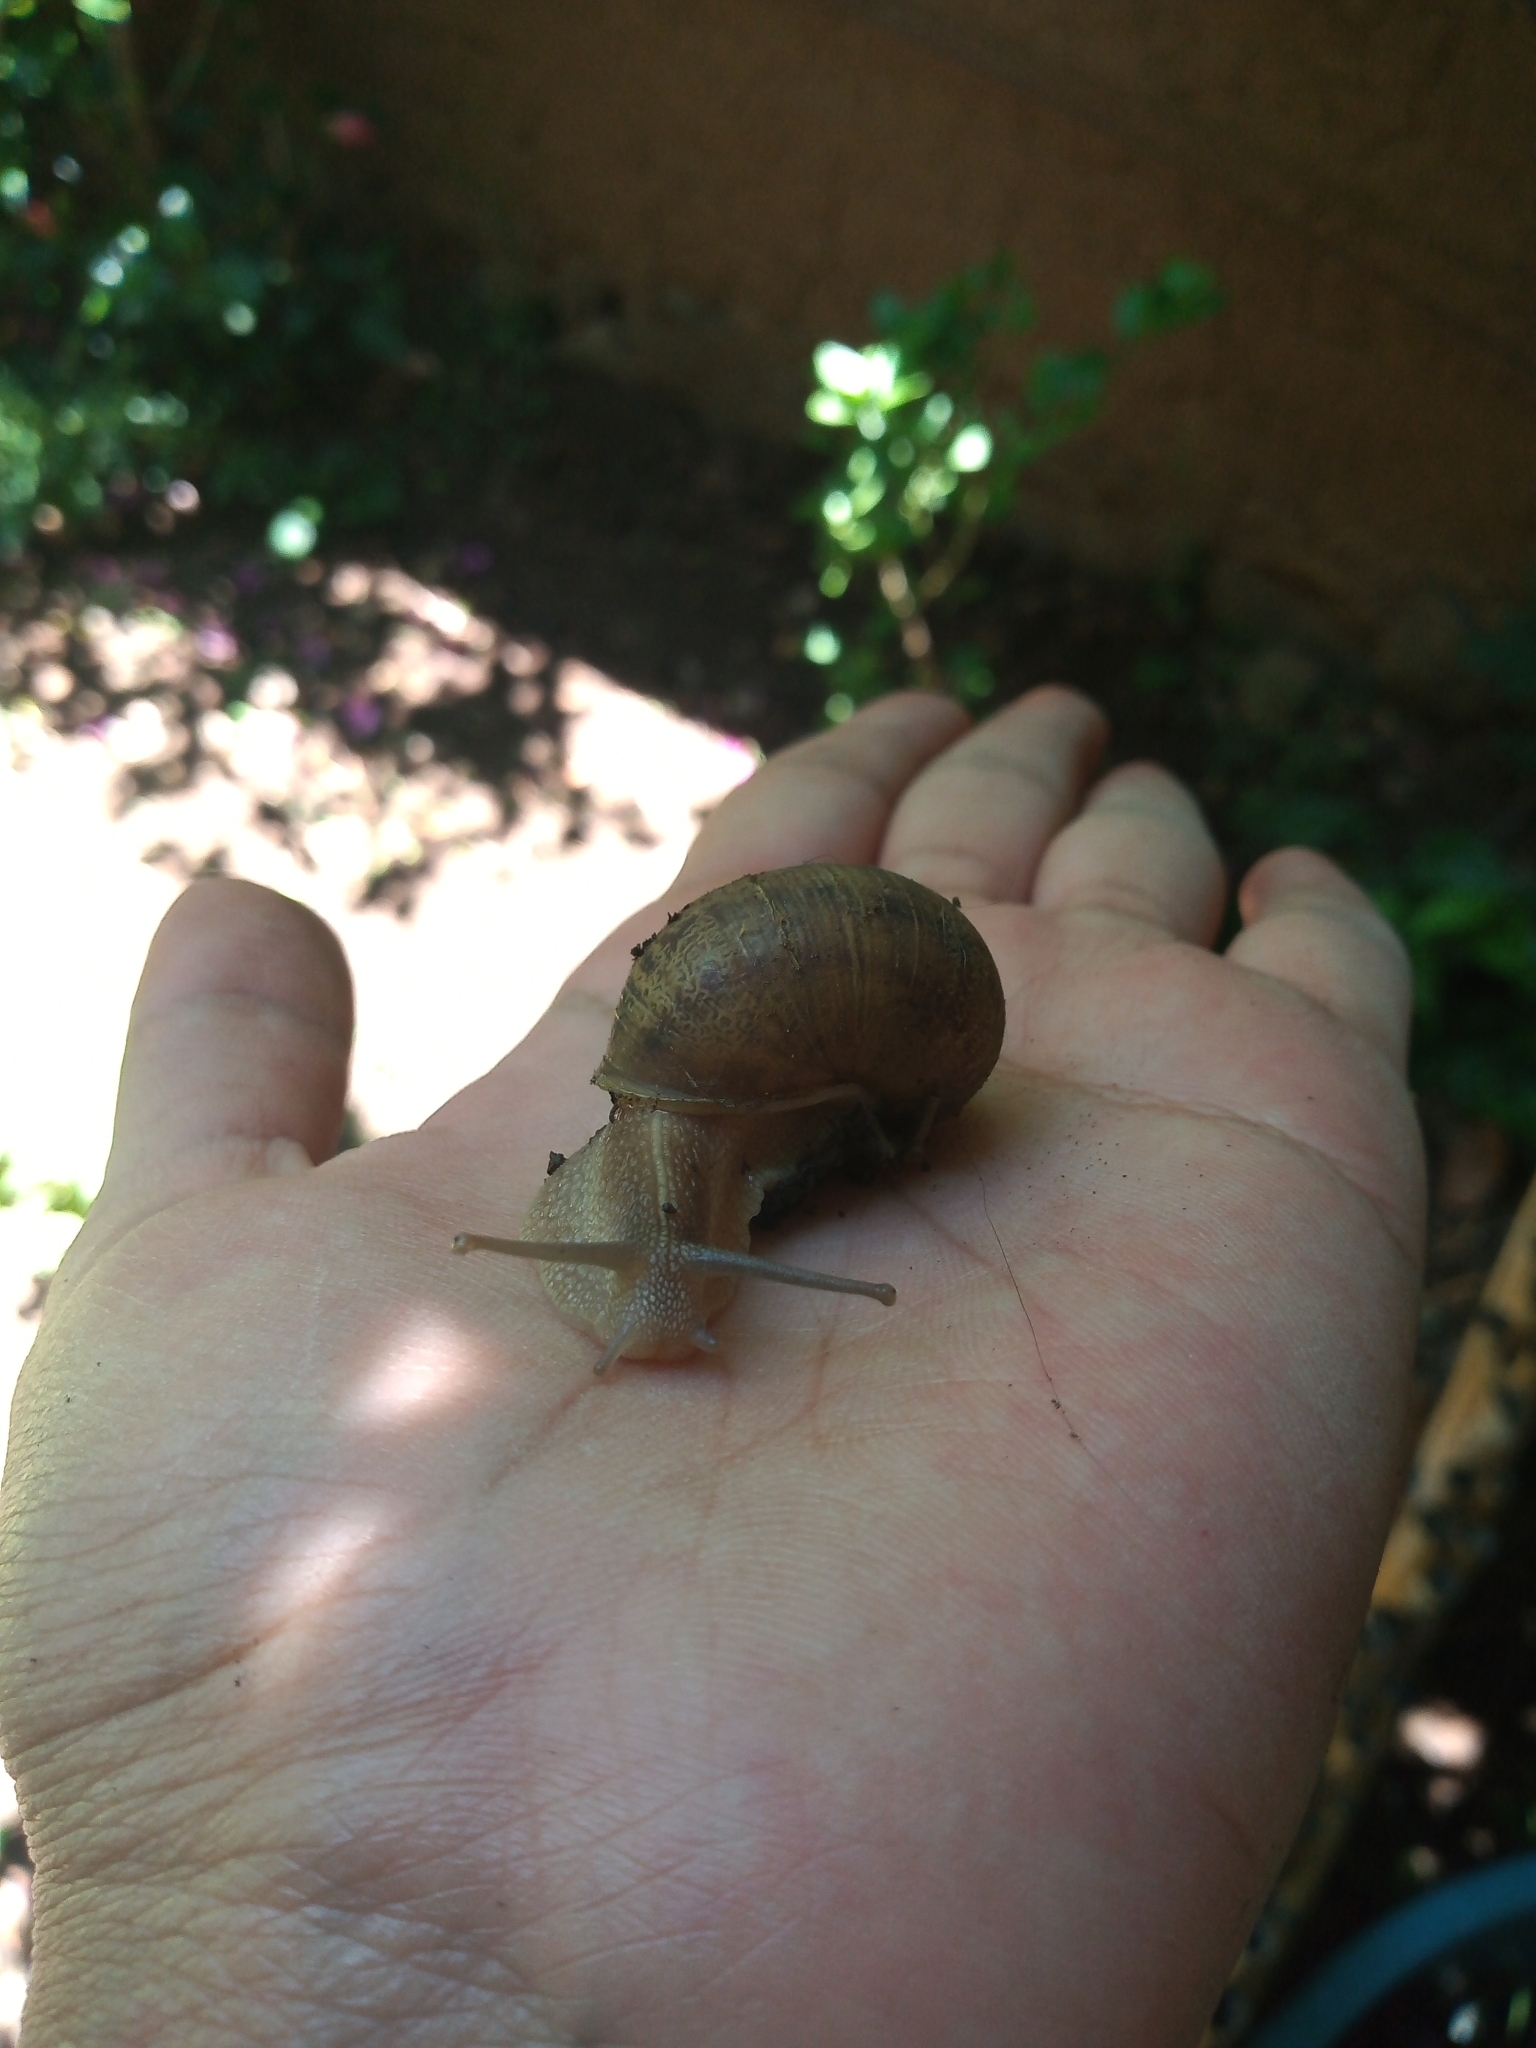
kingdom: Animalia
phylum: Mollusca
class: Gastropoda
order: Stylommatophora
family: Helicidae
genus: Cornu
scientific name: Cornu aspersum
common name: Brown garden snail
